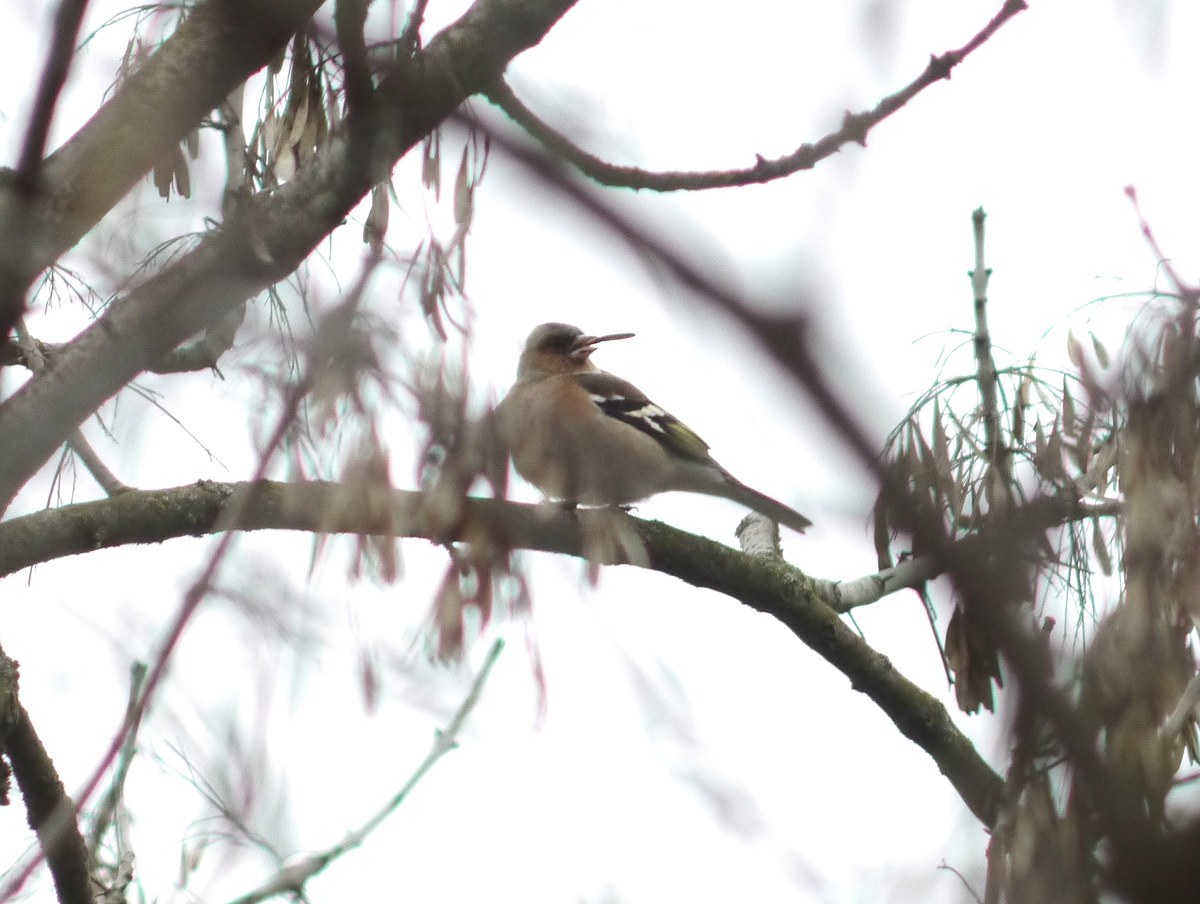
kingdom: Animalia
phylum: Chordata
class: Aves
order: Passeriformes
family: Fringillidae
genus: Fringilla
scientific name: Fringilla coelebs
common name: Common chaffinch
